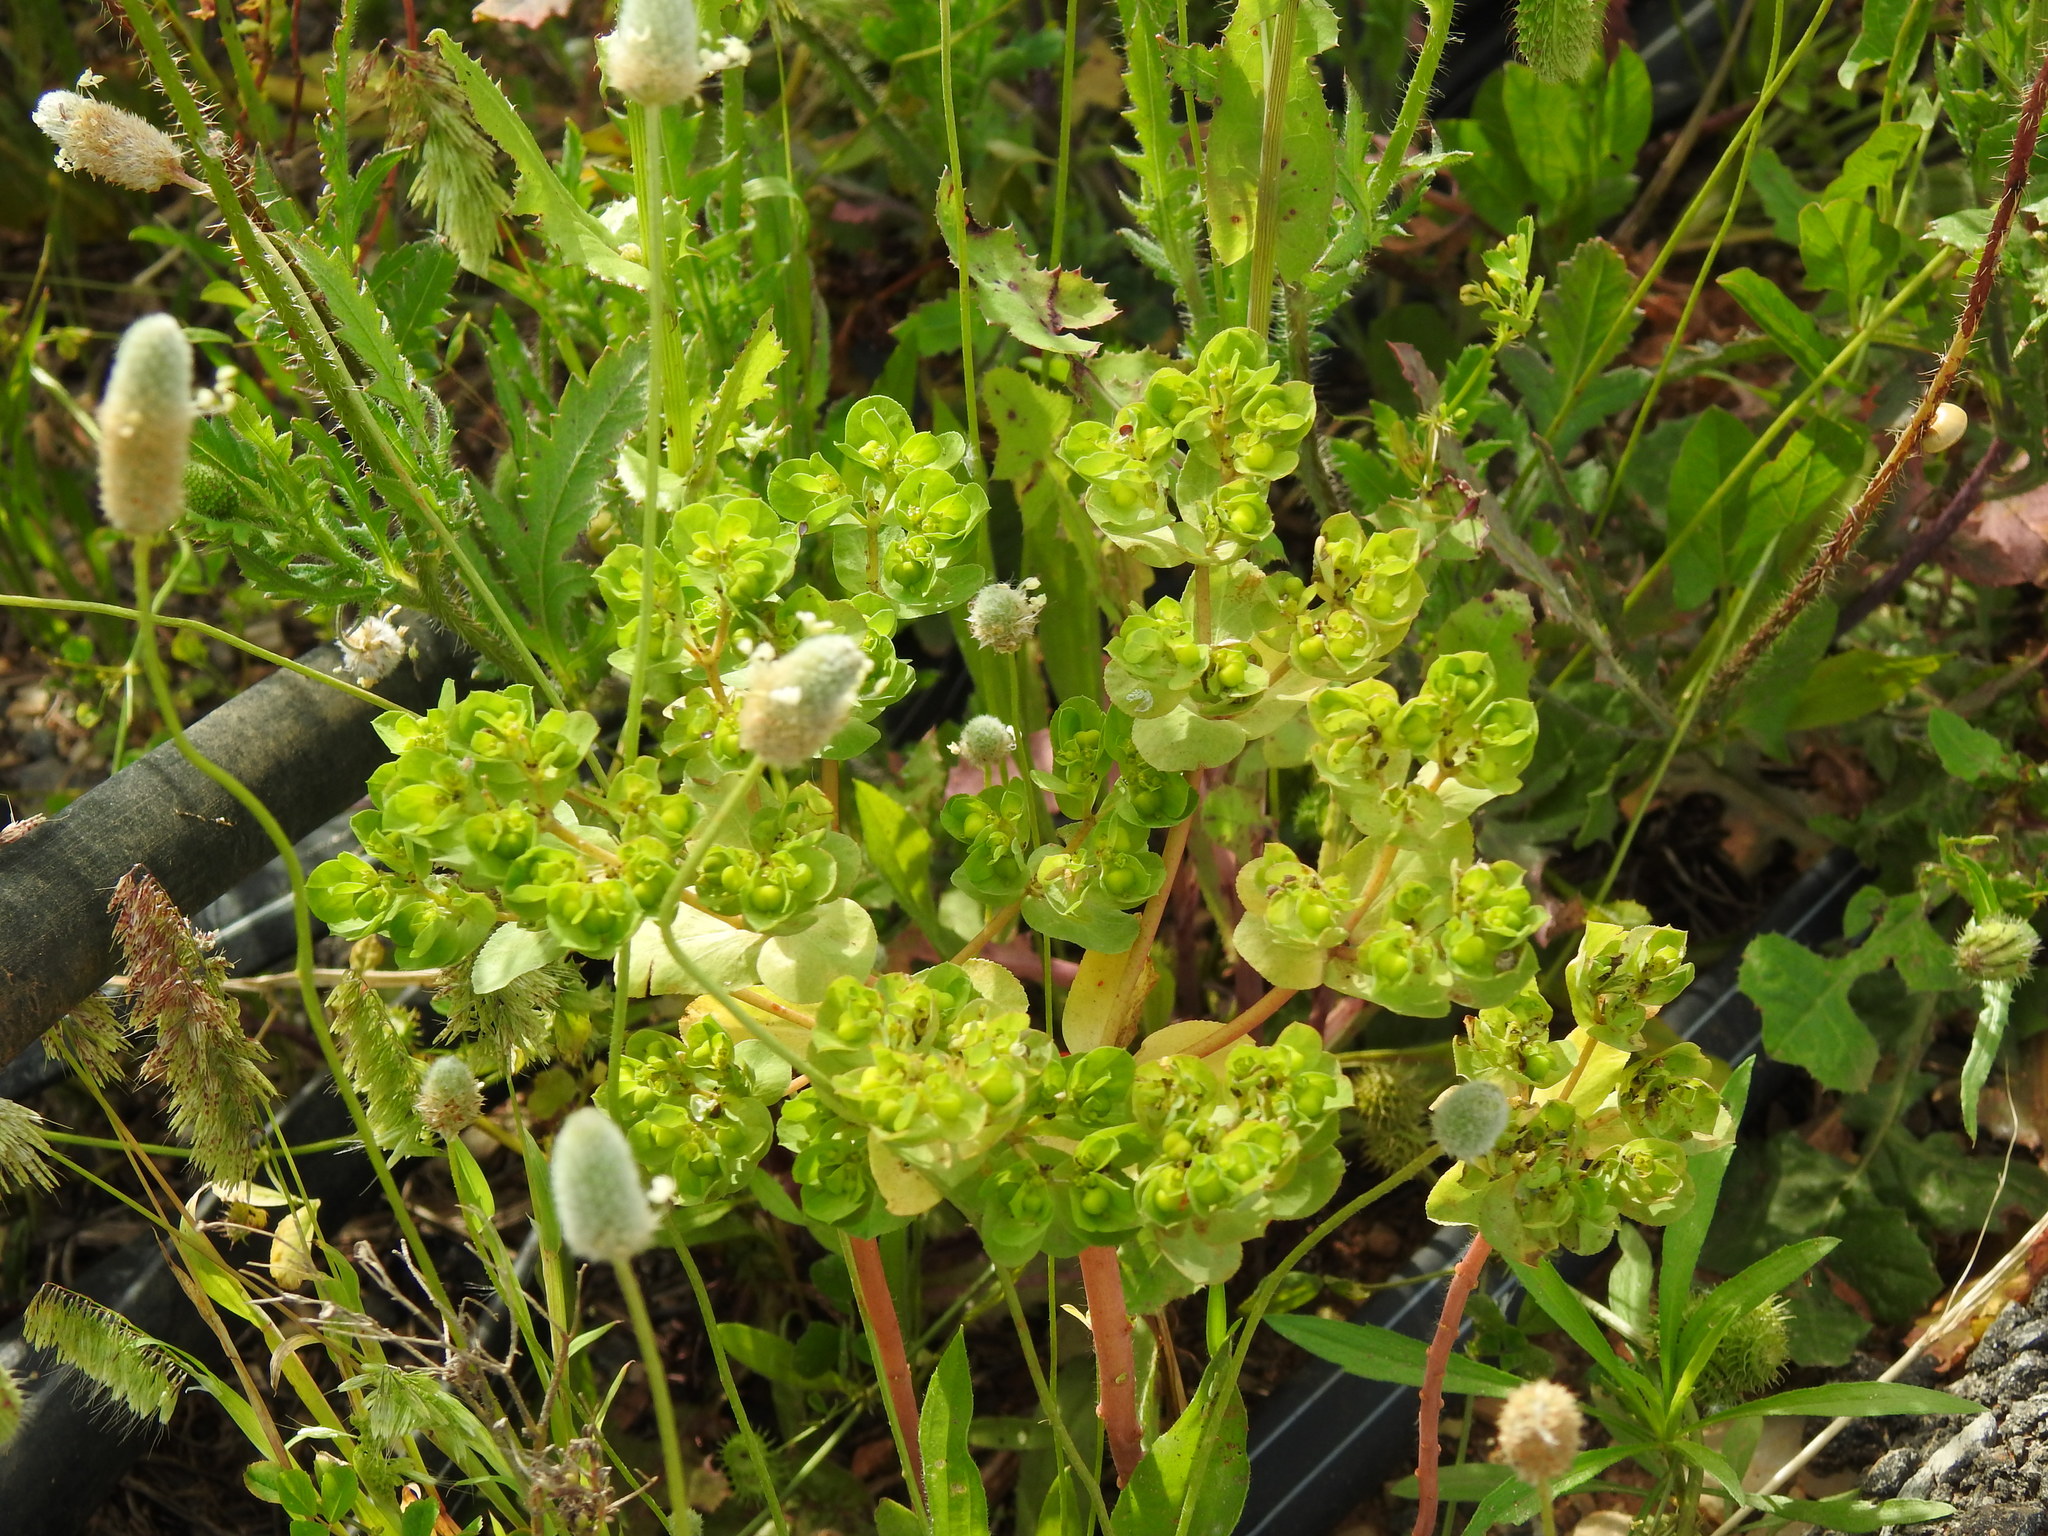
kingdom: Plantae
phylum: Tracheophyta
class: Magnoliopsida
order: Malpighiales
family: Euphorbiaceae
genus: Euphorbia
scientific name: Euphorbia helioscopia
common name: Sun spurge
